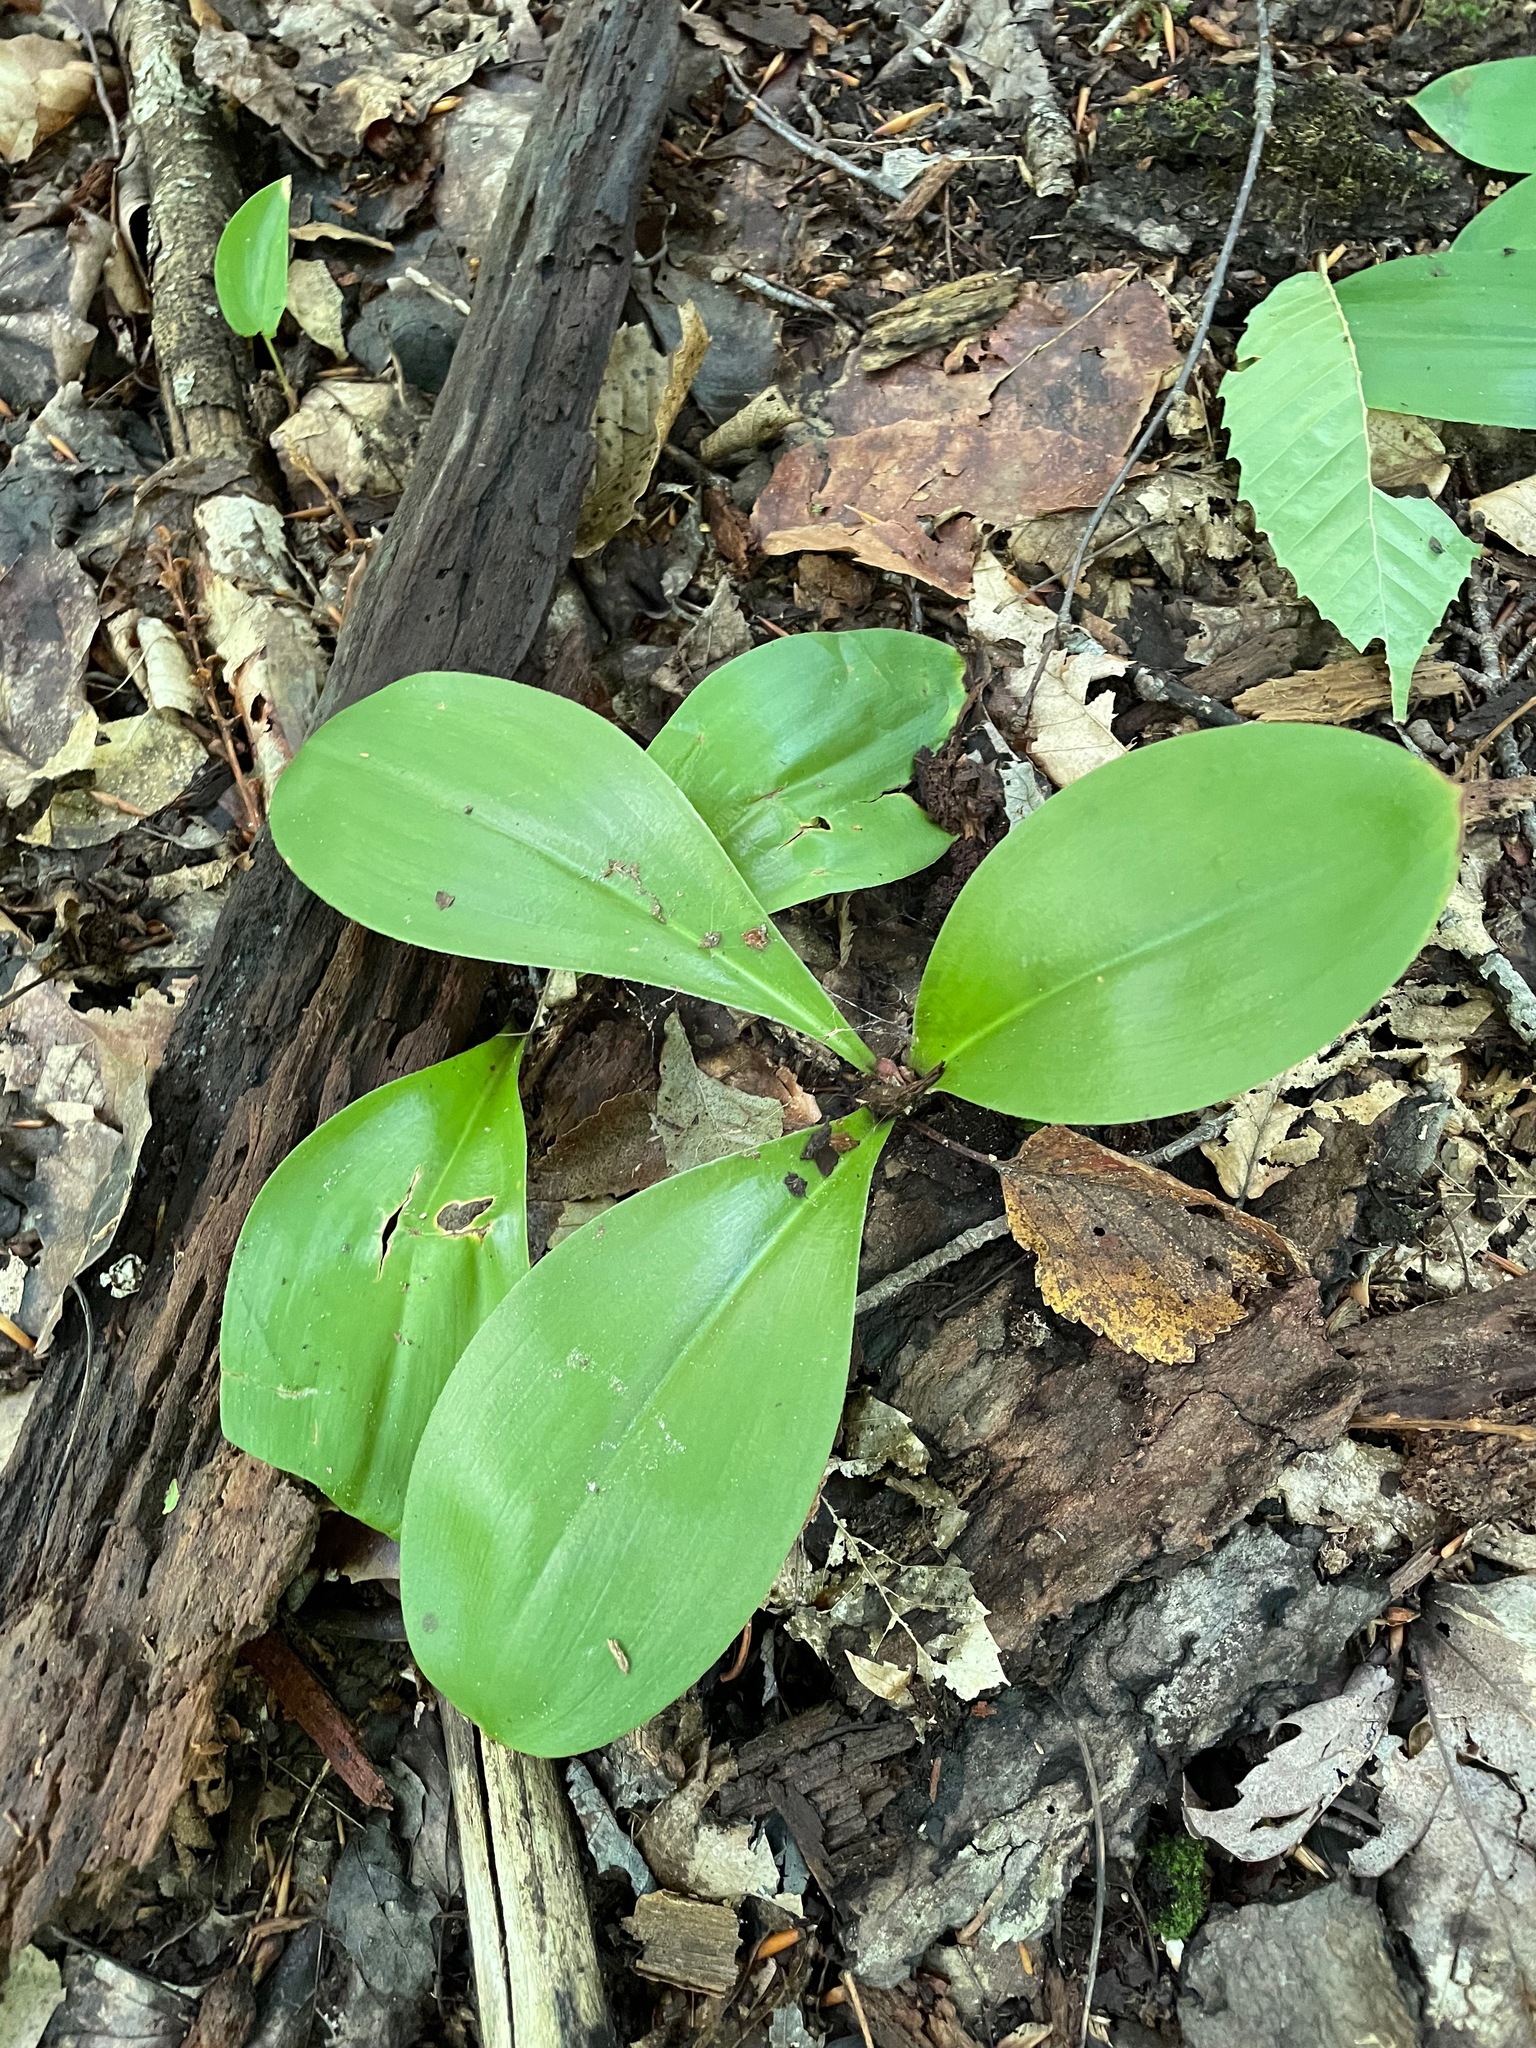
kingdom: Plantae
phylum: Tracheophyta
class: Liliopsida
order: Liliales
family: Liliaceae
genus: Clintonia
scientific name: Clintonia borealis
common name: Yellow clintonia
